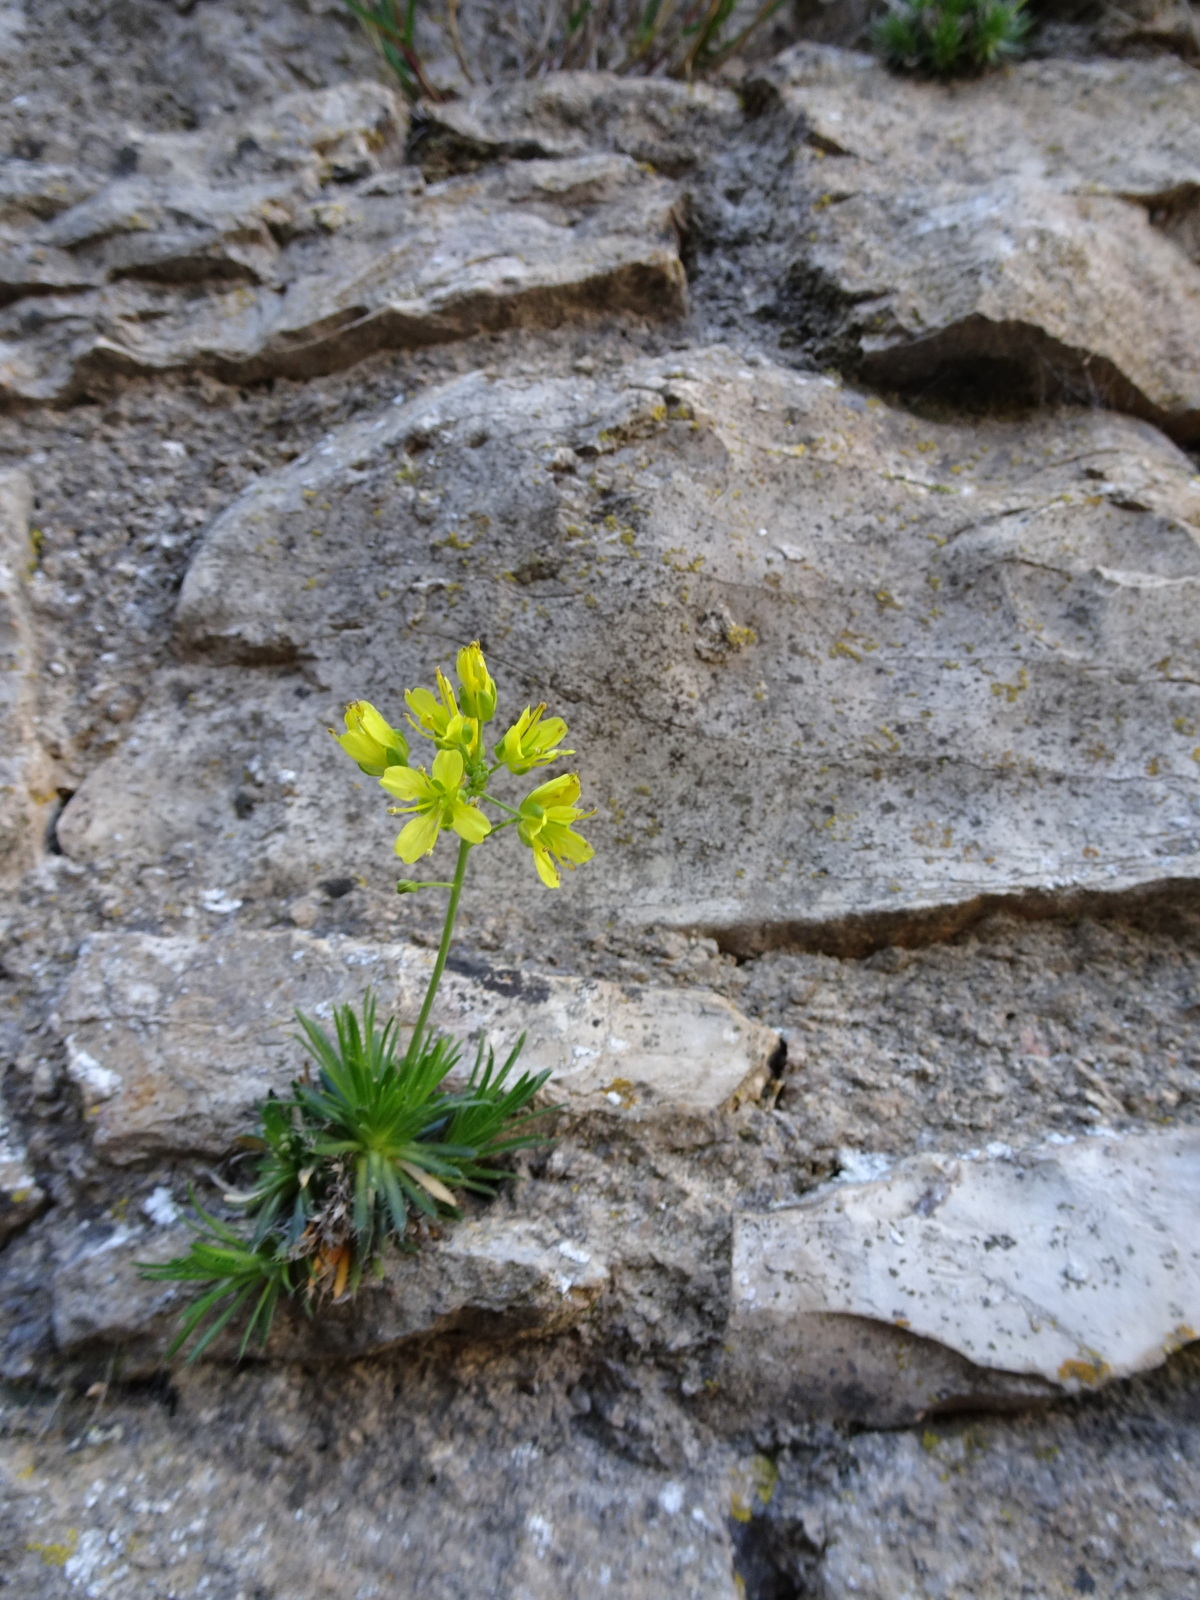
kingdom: Plantae
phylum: Tracheophyta
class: Magnoliopsida
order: Brassicales
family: Brassicaceae
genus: Draba
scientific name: Draba aizoides
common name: Yellow whitlowgrass
